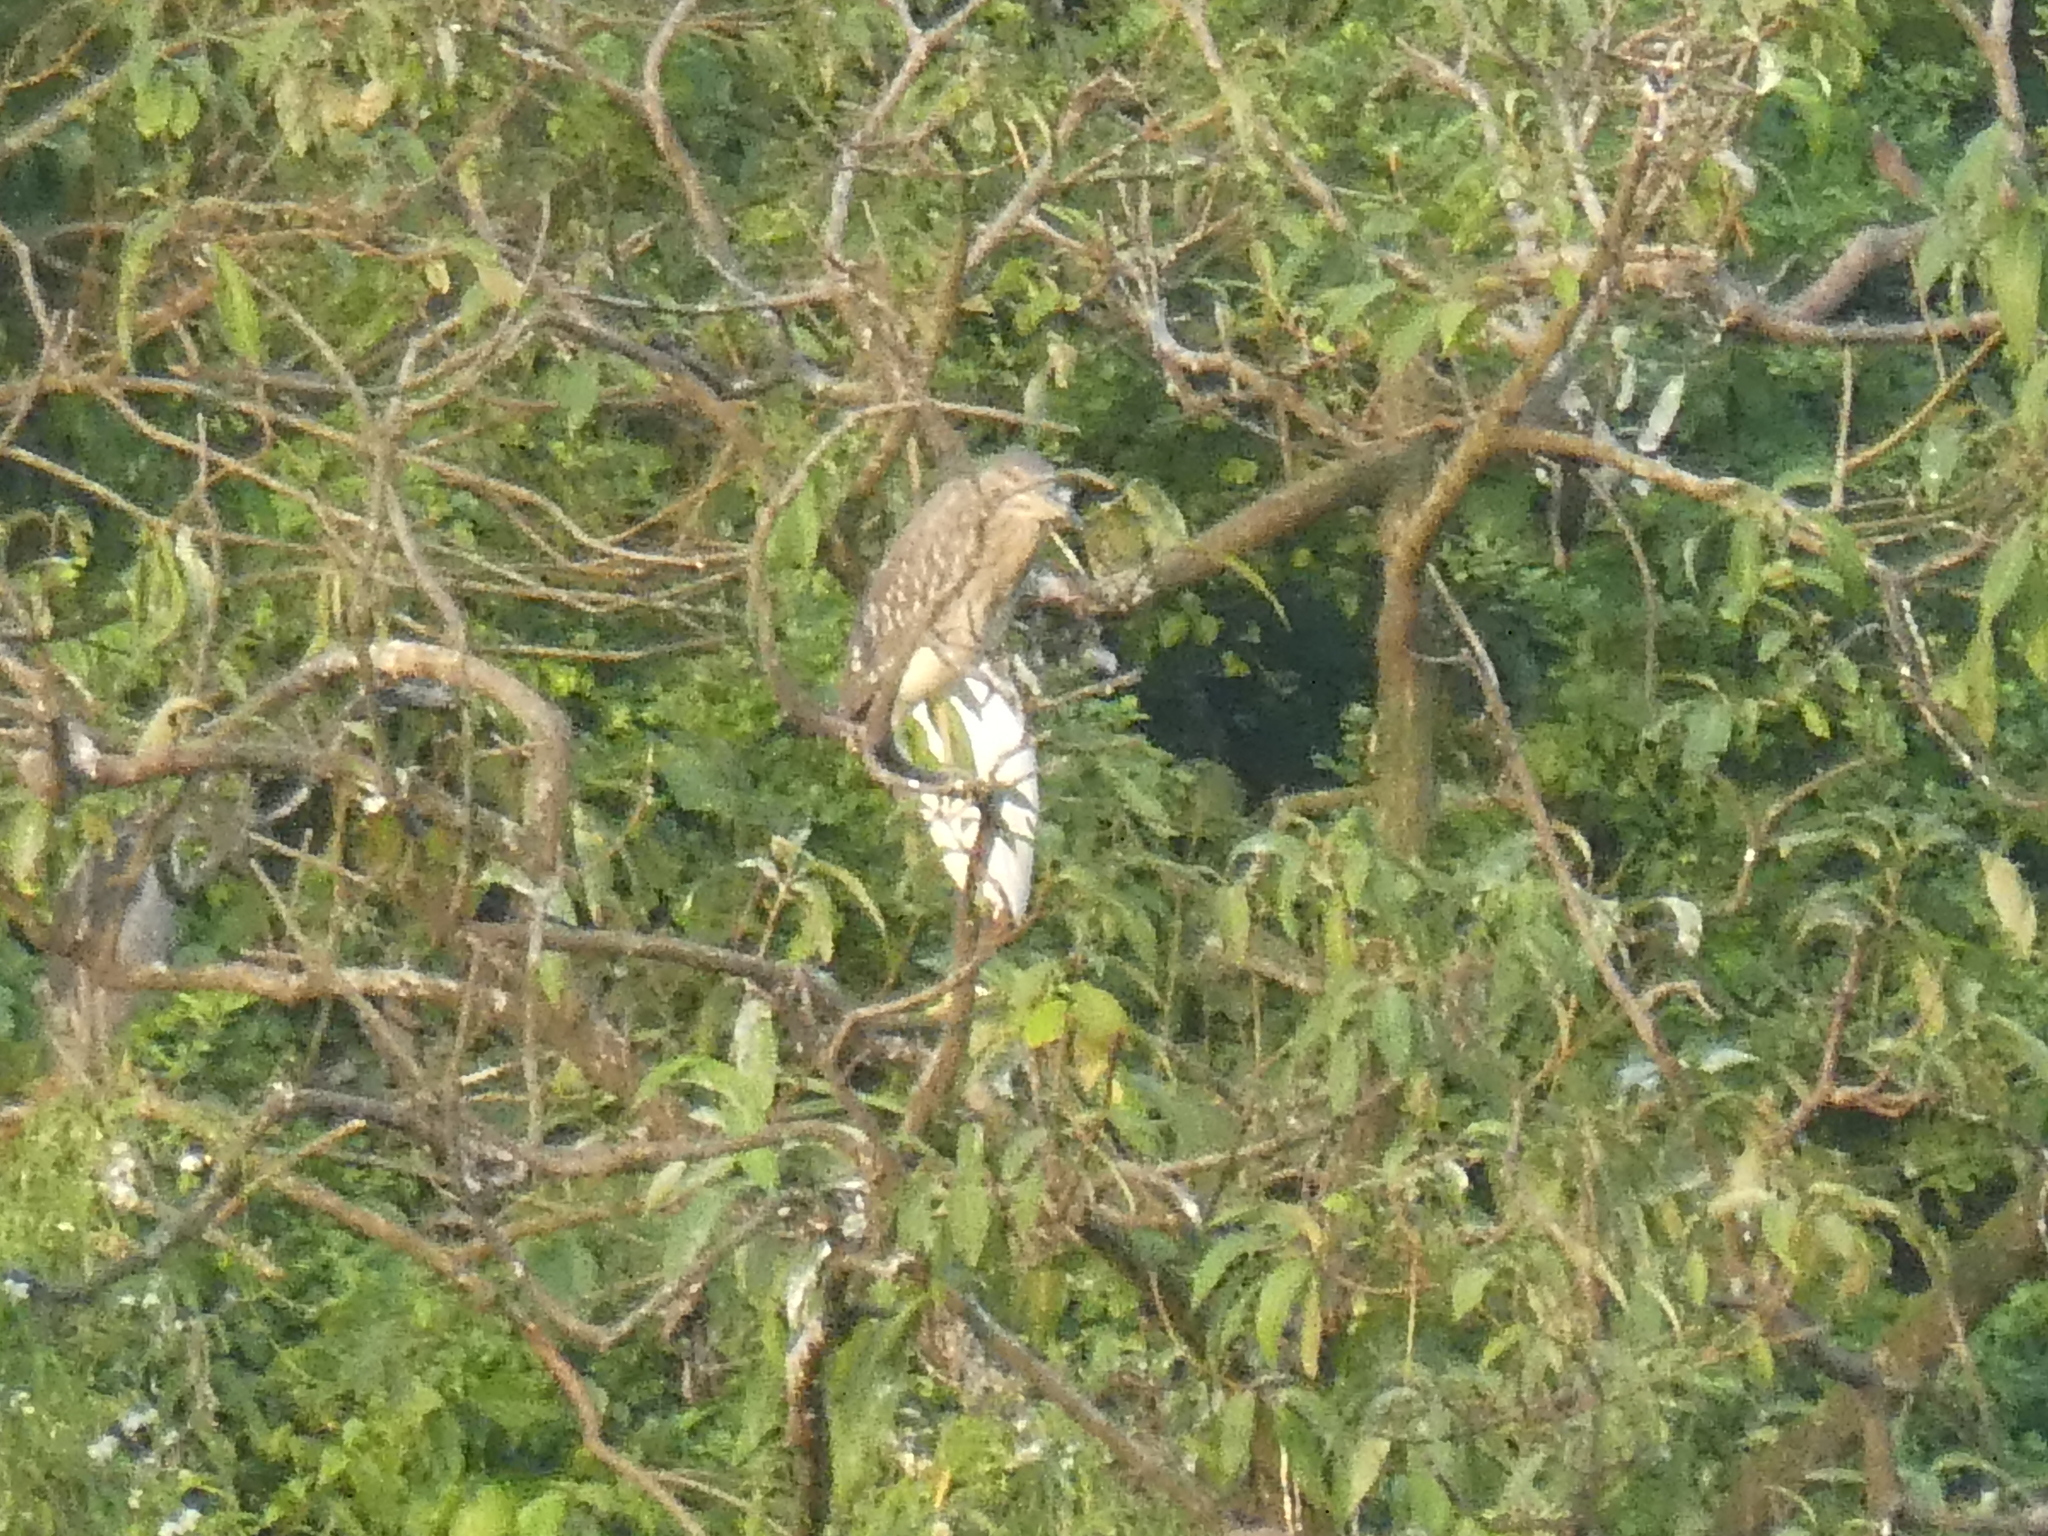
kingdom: Animalia
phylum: Chordata
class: Aves
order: Pelecaniformes
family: Ardeidae
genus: Nycticorax
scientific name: Nycticorax nycticorax
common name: Black-crowned night heron
